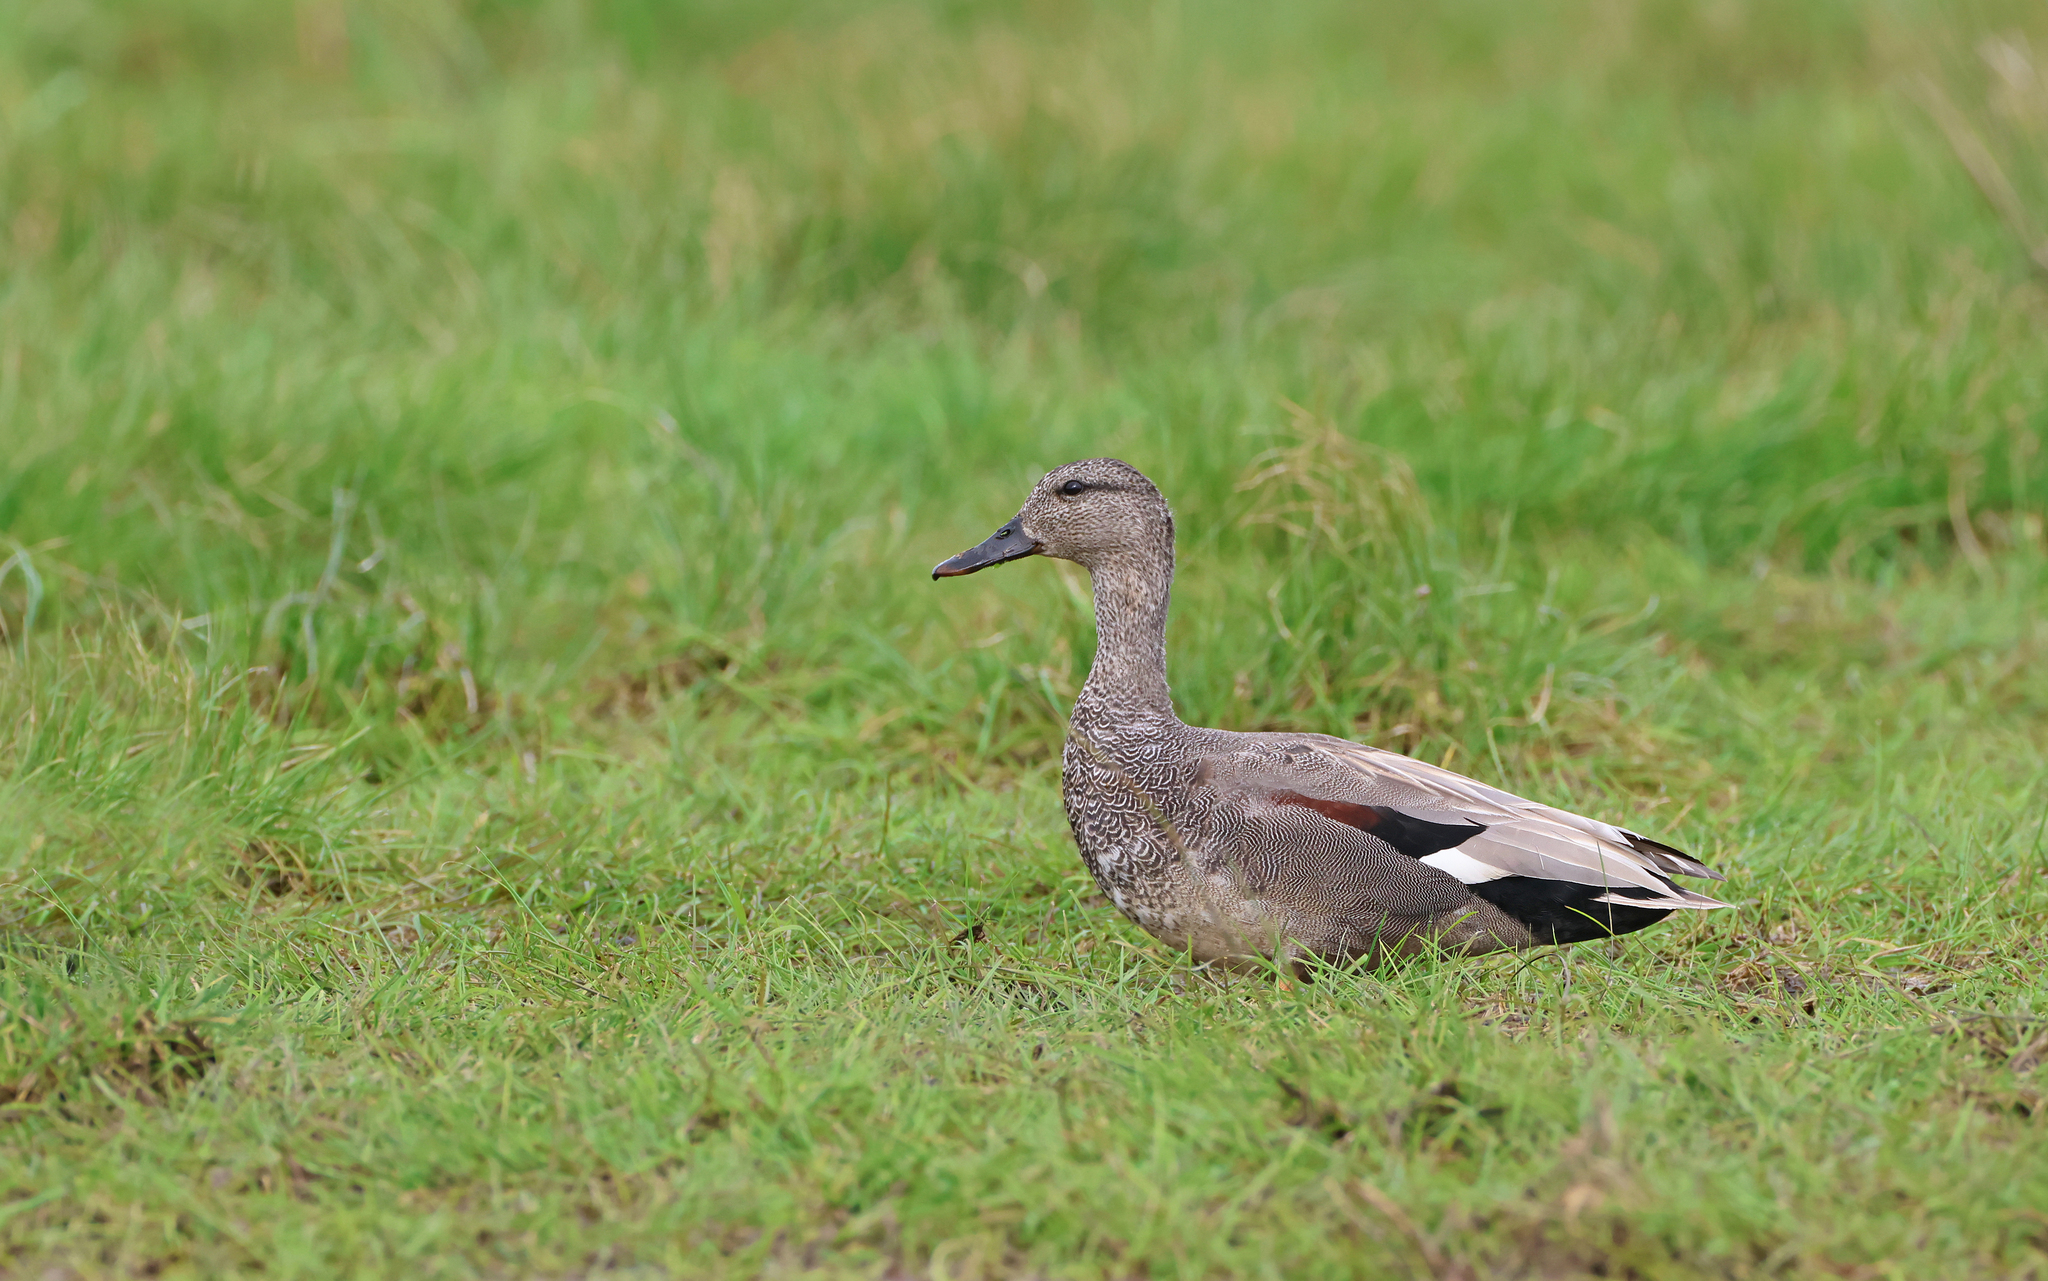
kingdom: Animalia
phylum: Chordata
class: Aves
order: Anseriformes
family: Anatidae
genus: Mareca
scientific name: Mareca strepera
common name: Gadwall
